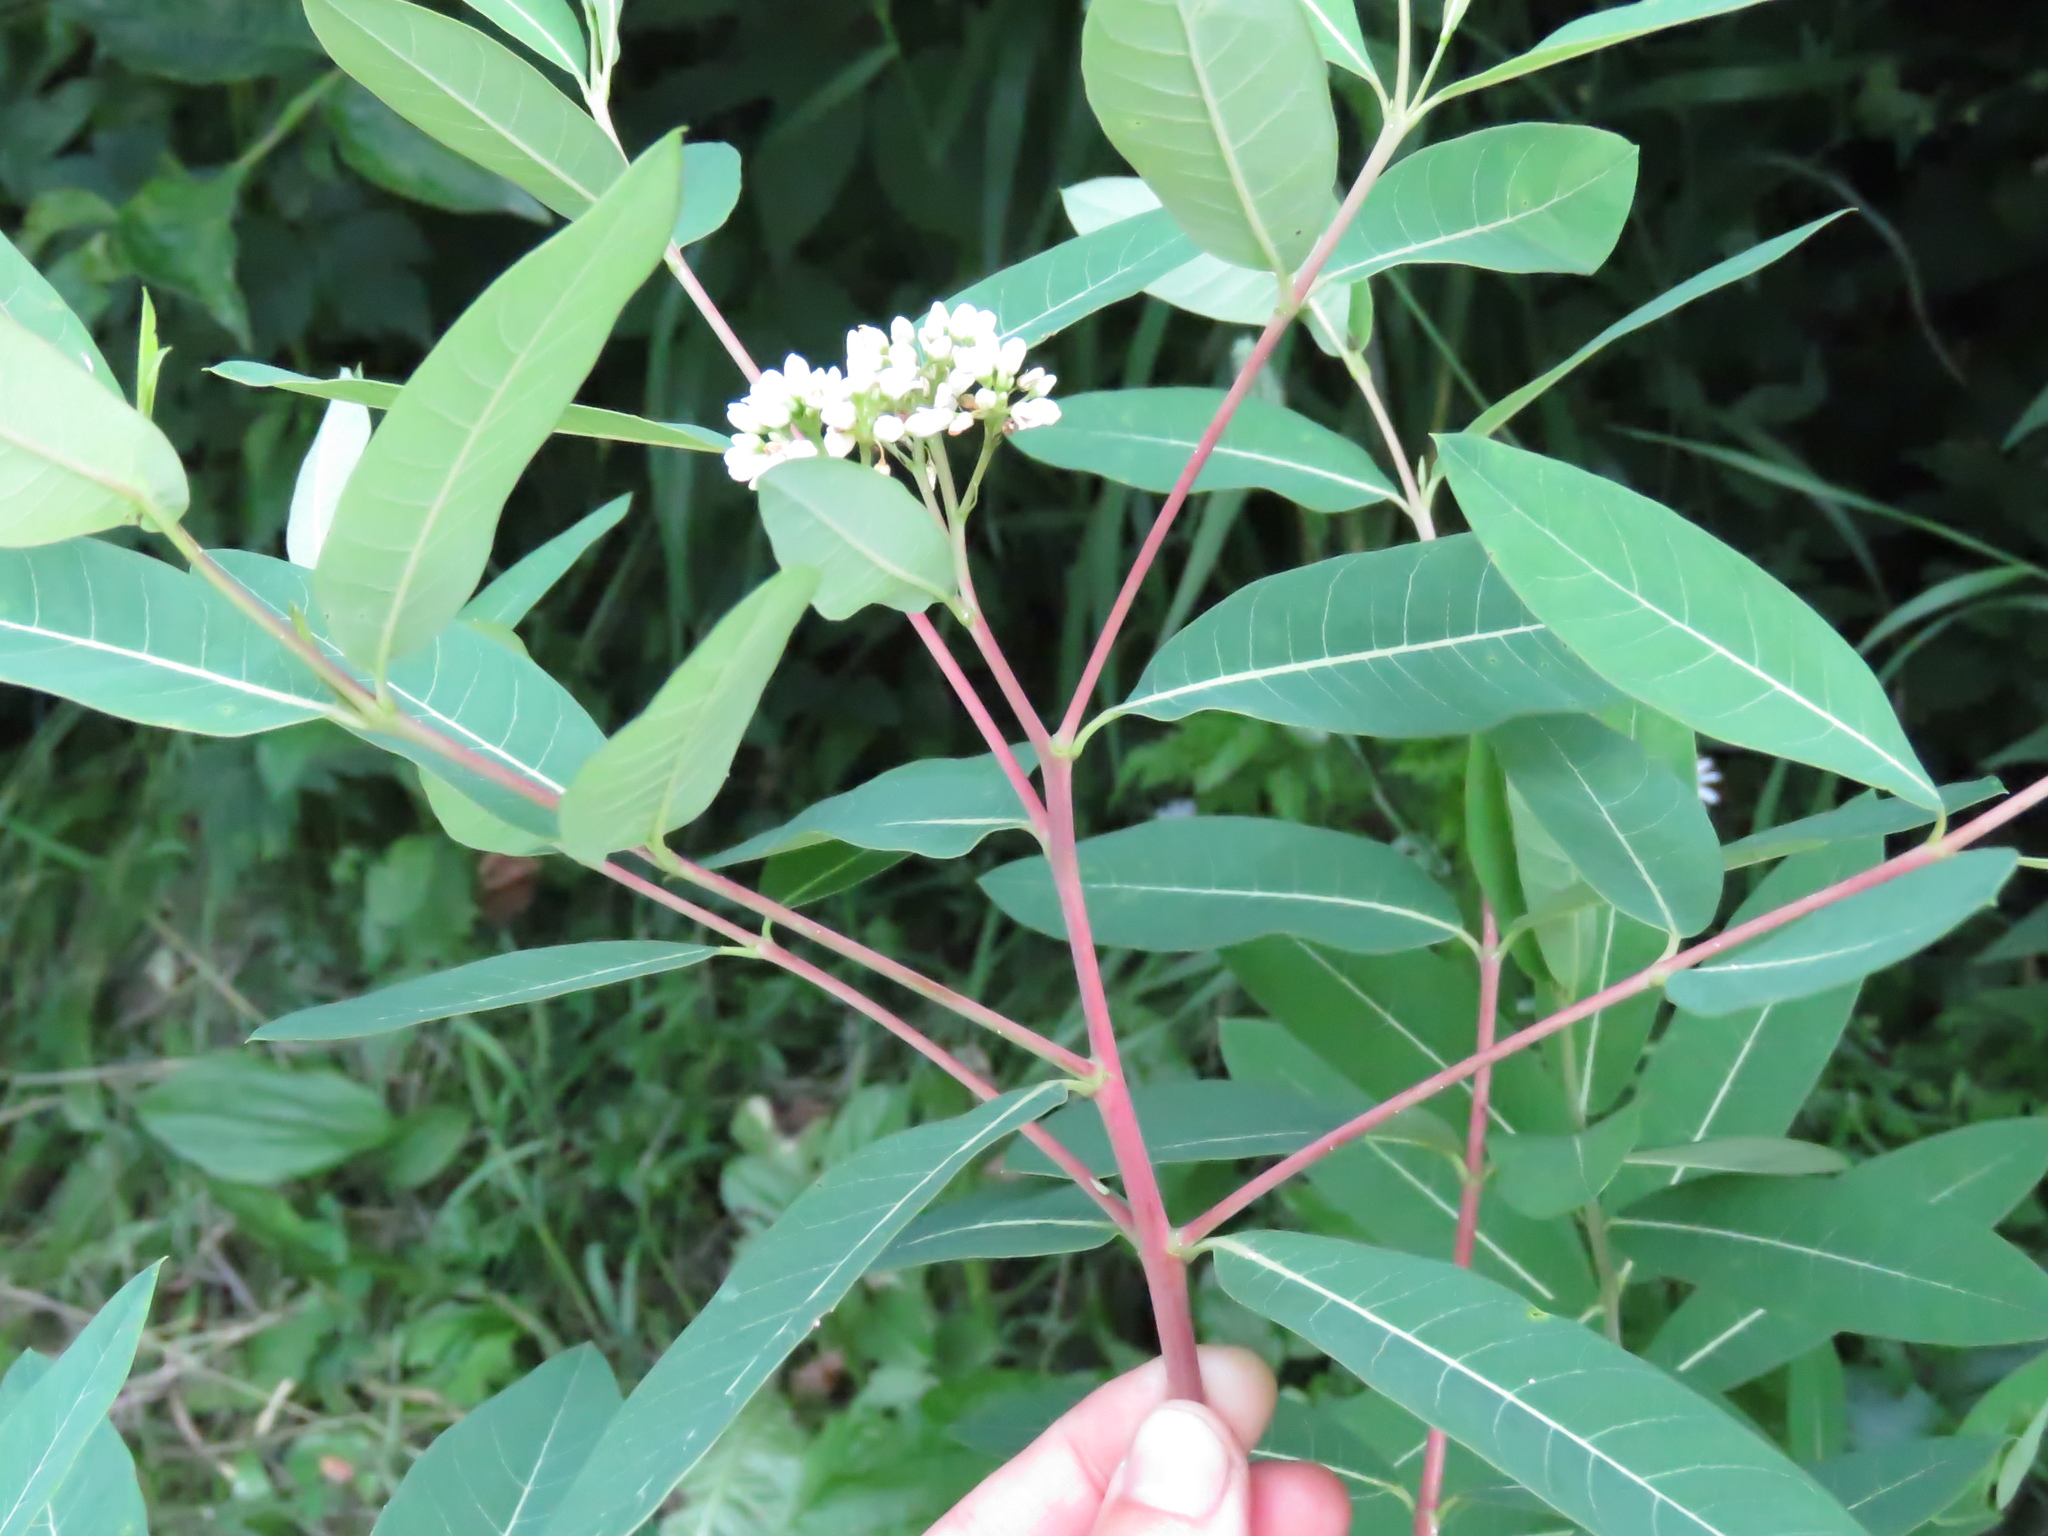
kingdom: Plantae
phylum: Tracheophyta
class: Magnoliopsida
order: Gentianales
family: Apocynaceae
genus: Apocynum
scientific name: Apocynum cannabinum
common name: Hemp dogbane
